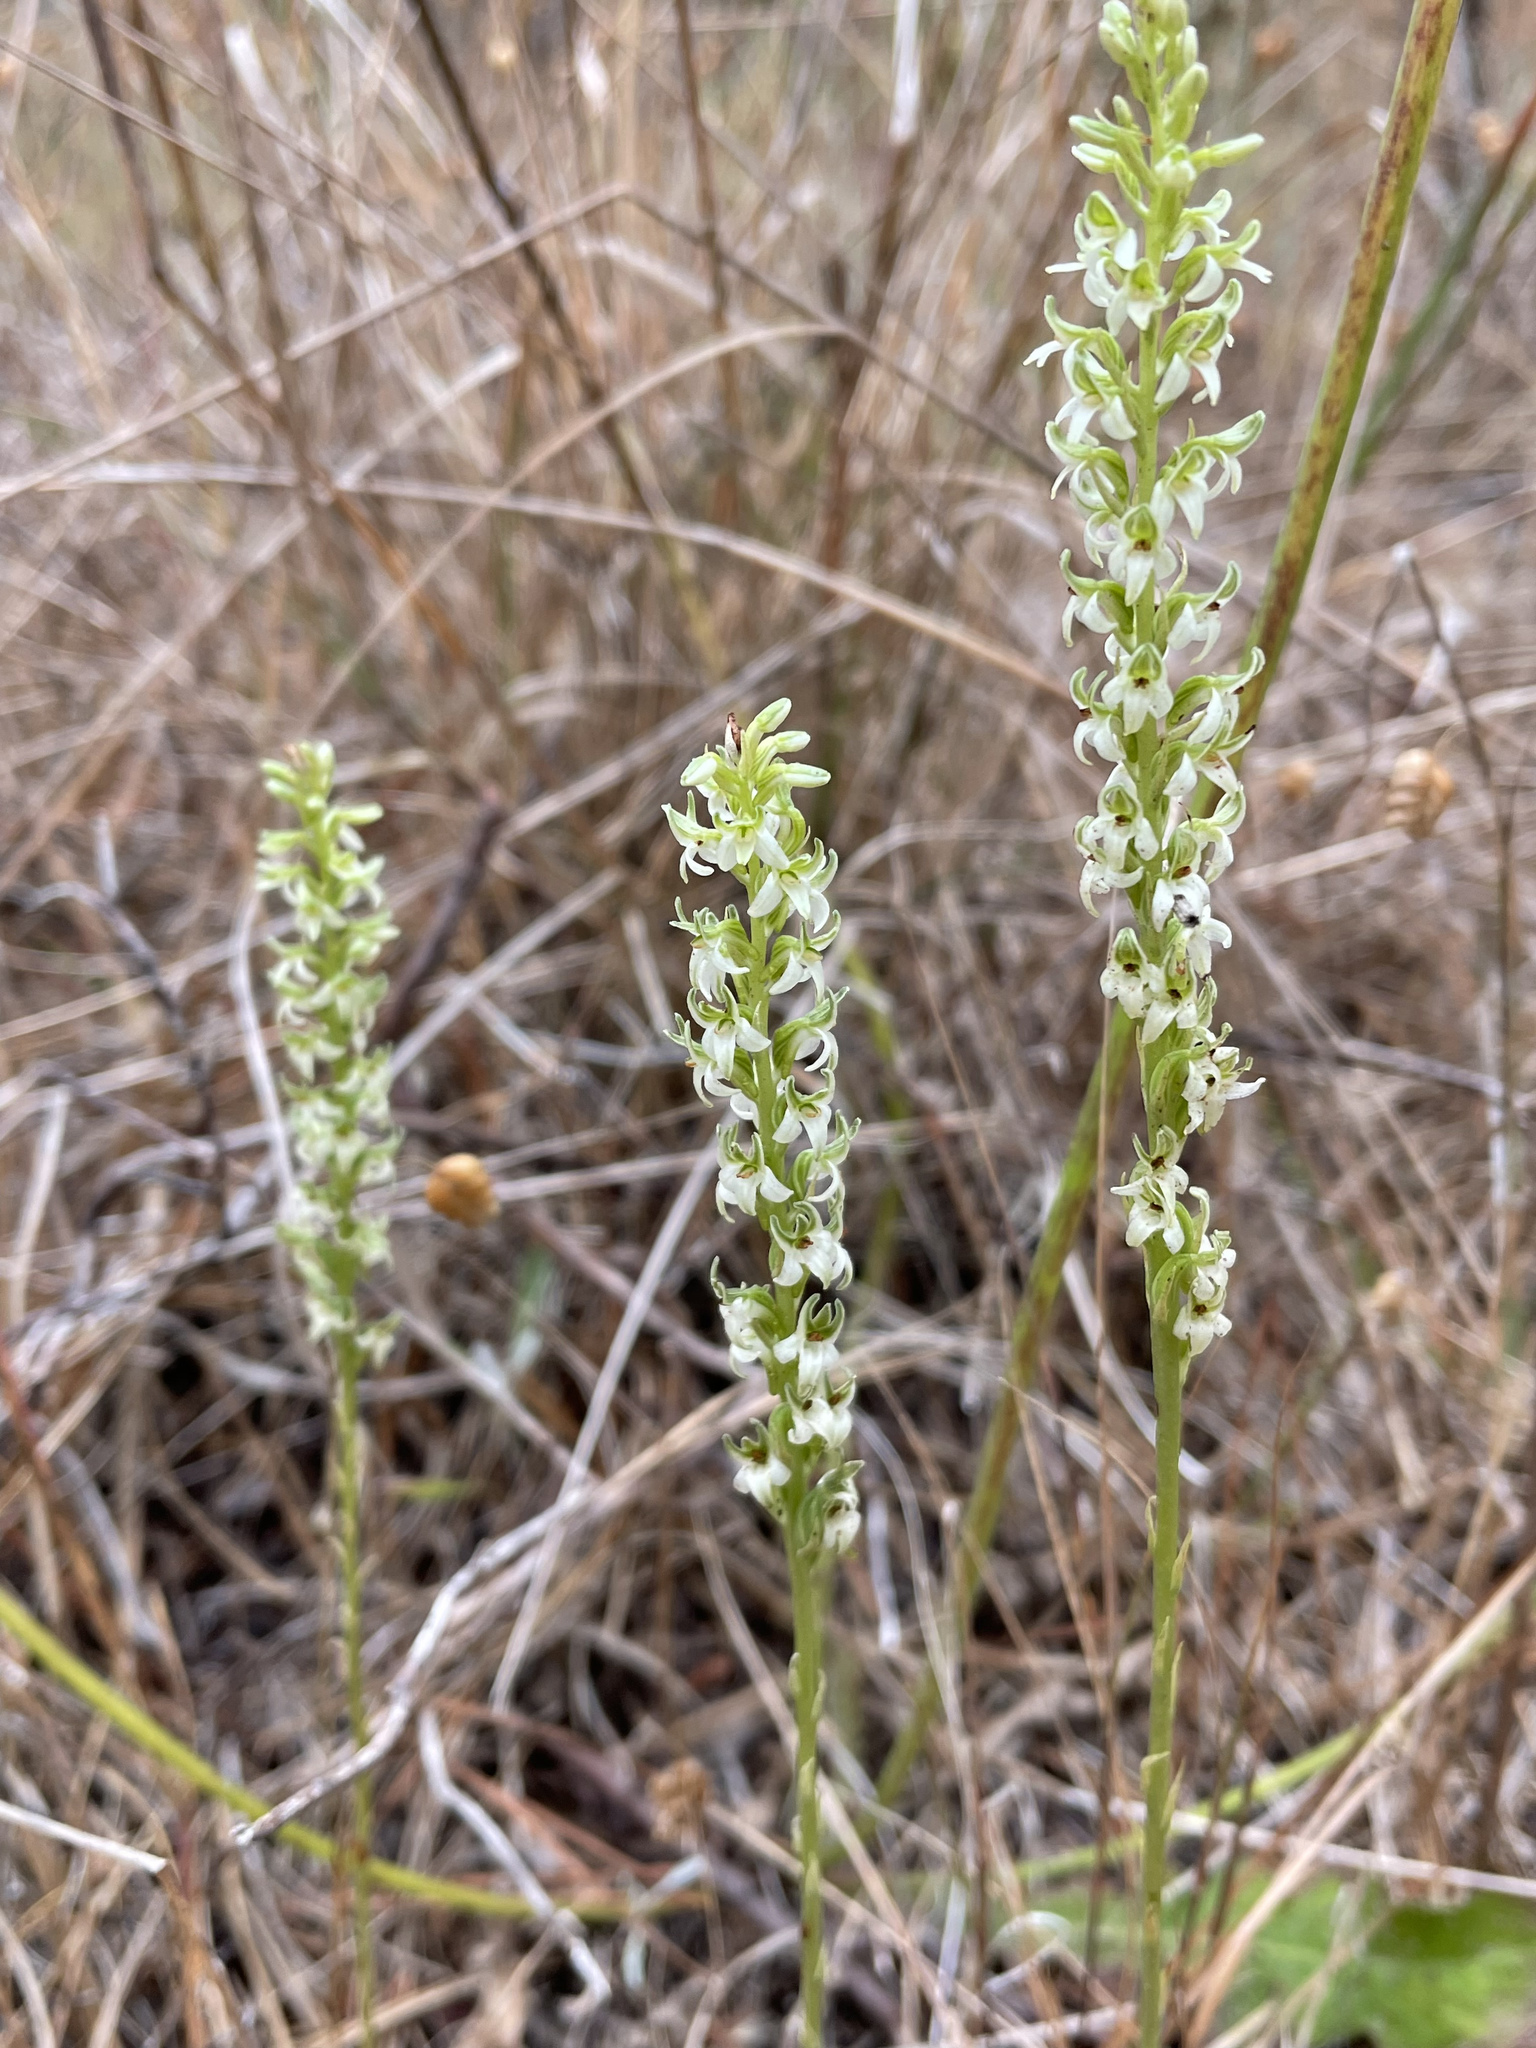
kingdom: Plantae
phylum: Tracheophyta
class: Liliopsida
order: Asparagales
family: Orchidaceae
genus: Platanthera
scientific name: Platanthera yadonii
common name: Yadon’s piperia
